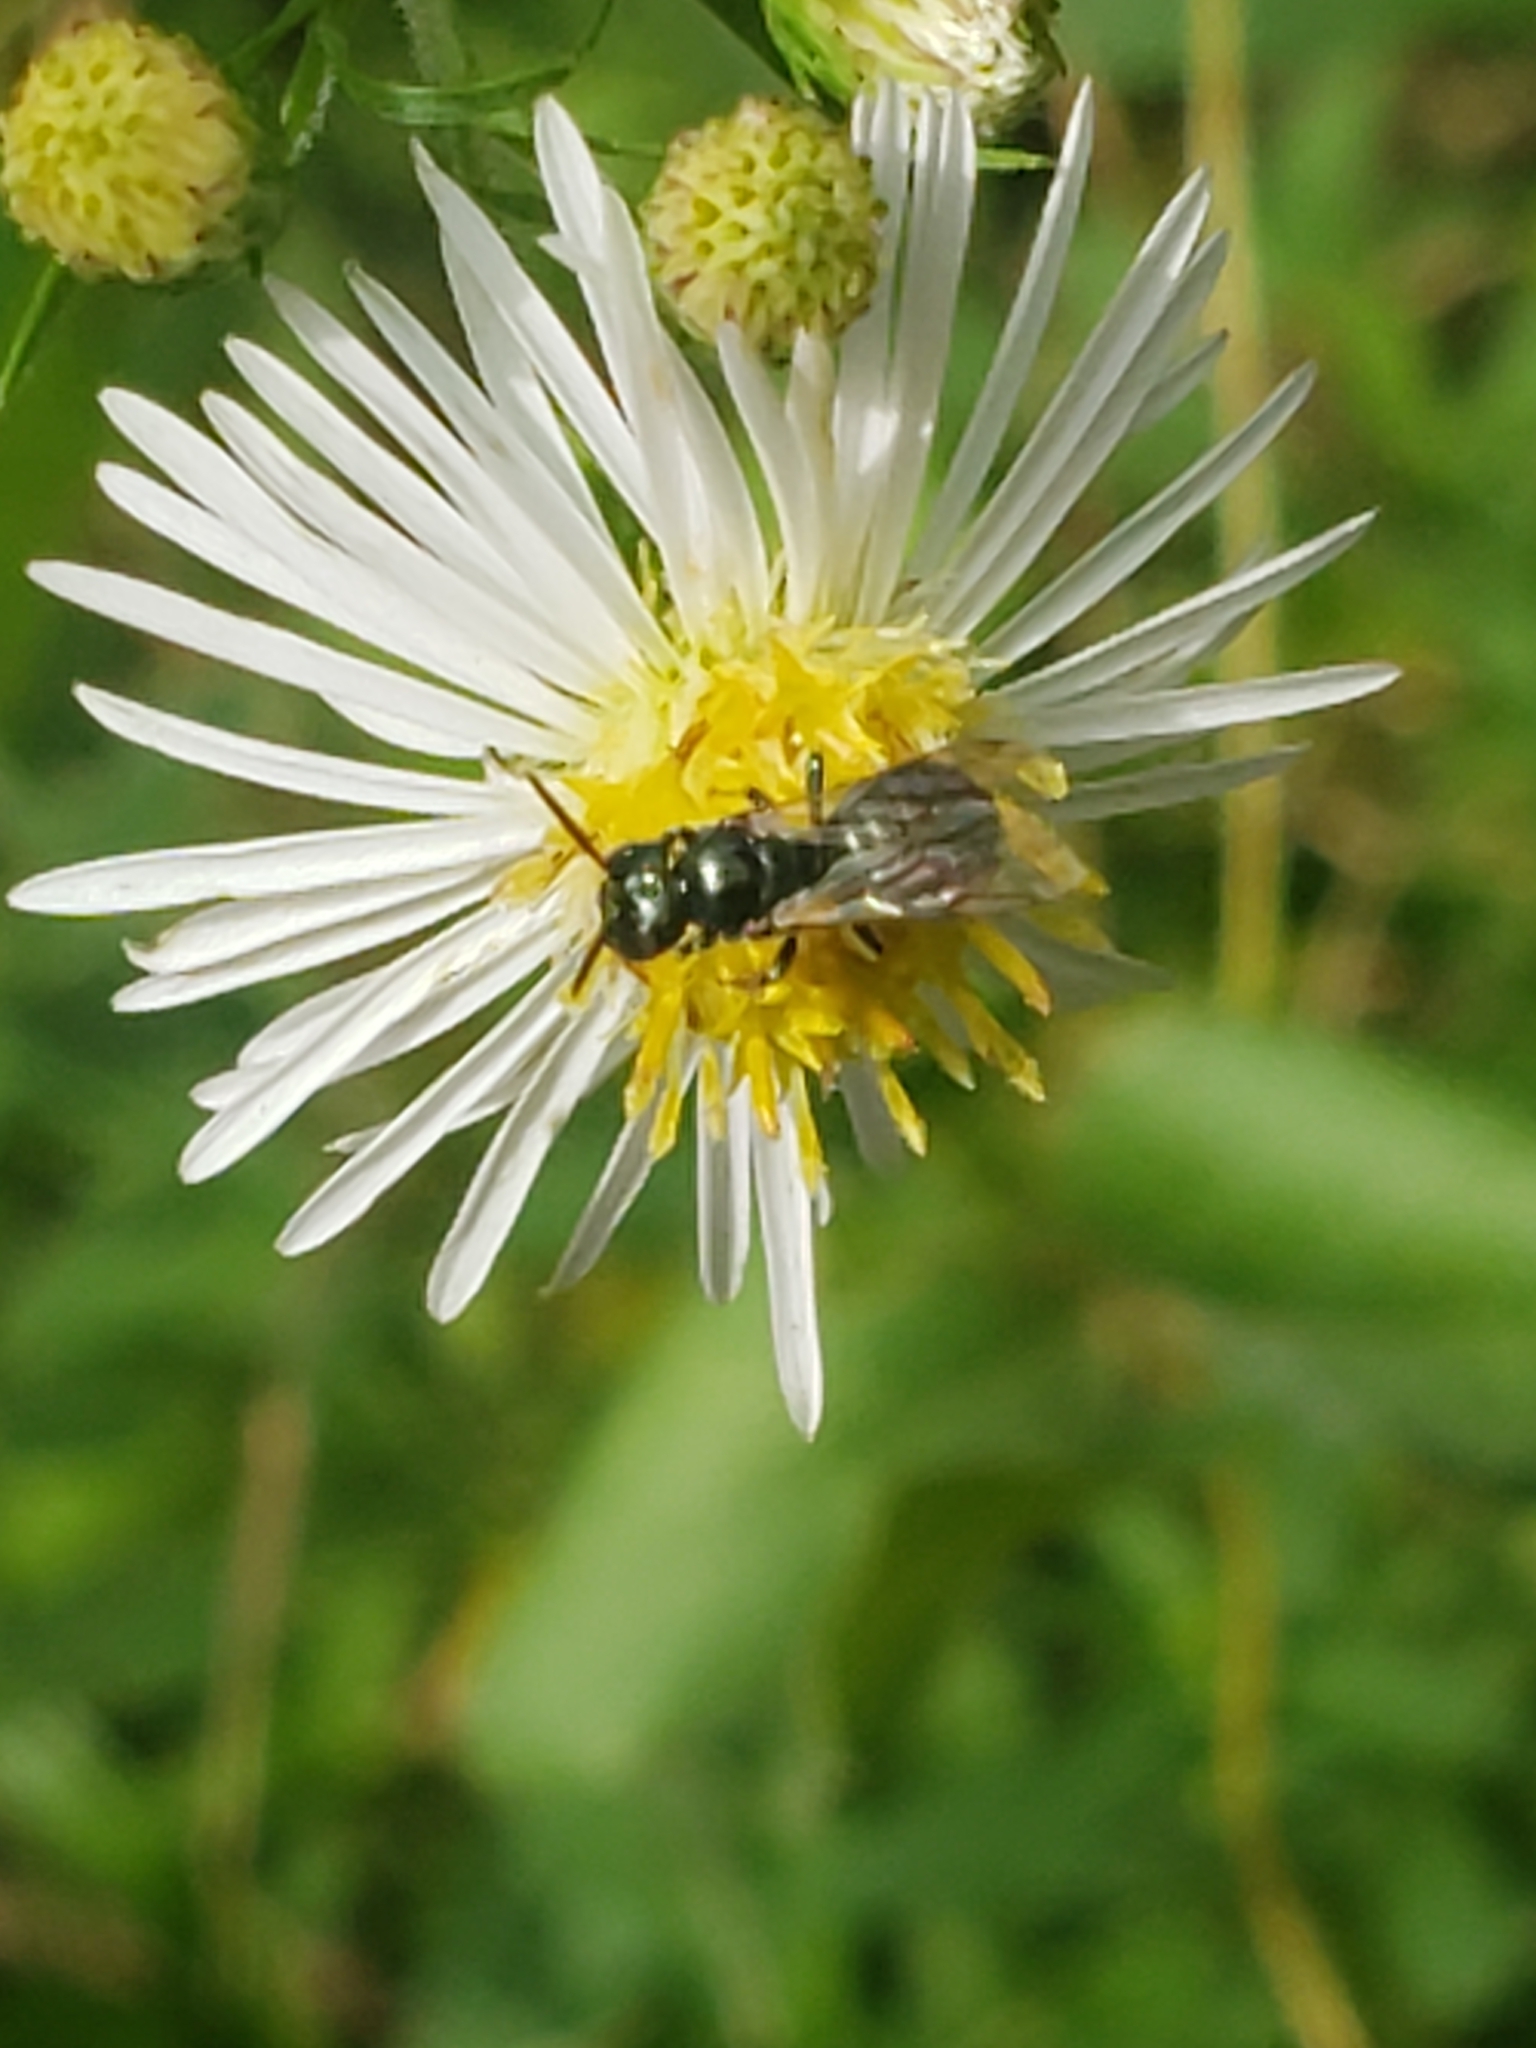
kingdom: Animalia
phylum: Arthropoda
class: Insecta
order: Hymenoptera
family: Apidae
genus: Zadontomerus
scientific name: Zadontomerus
